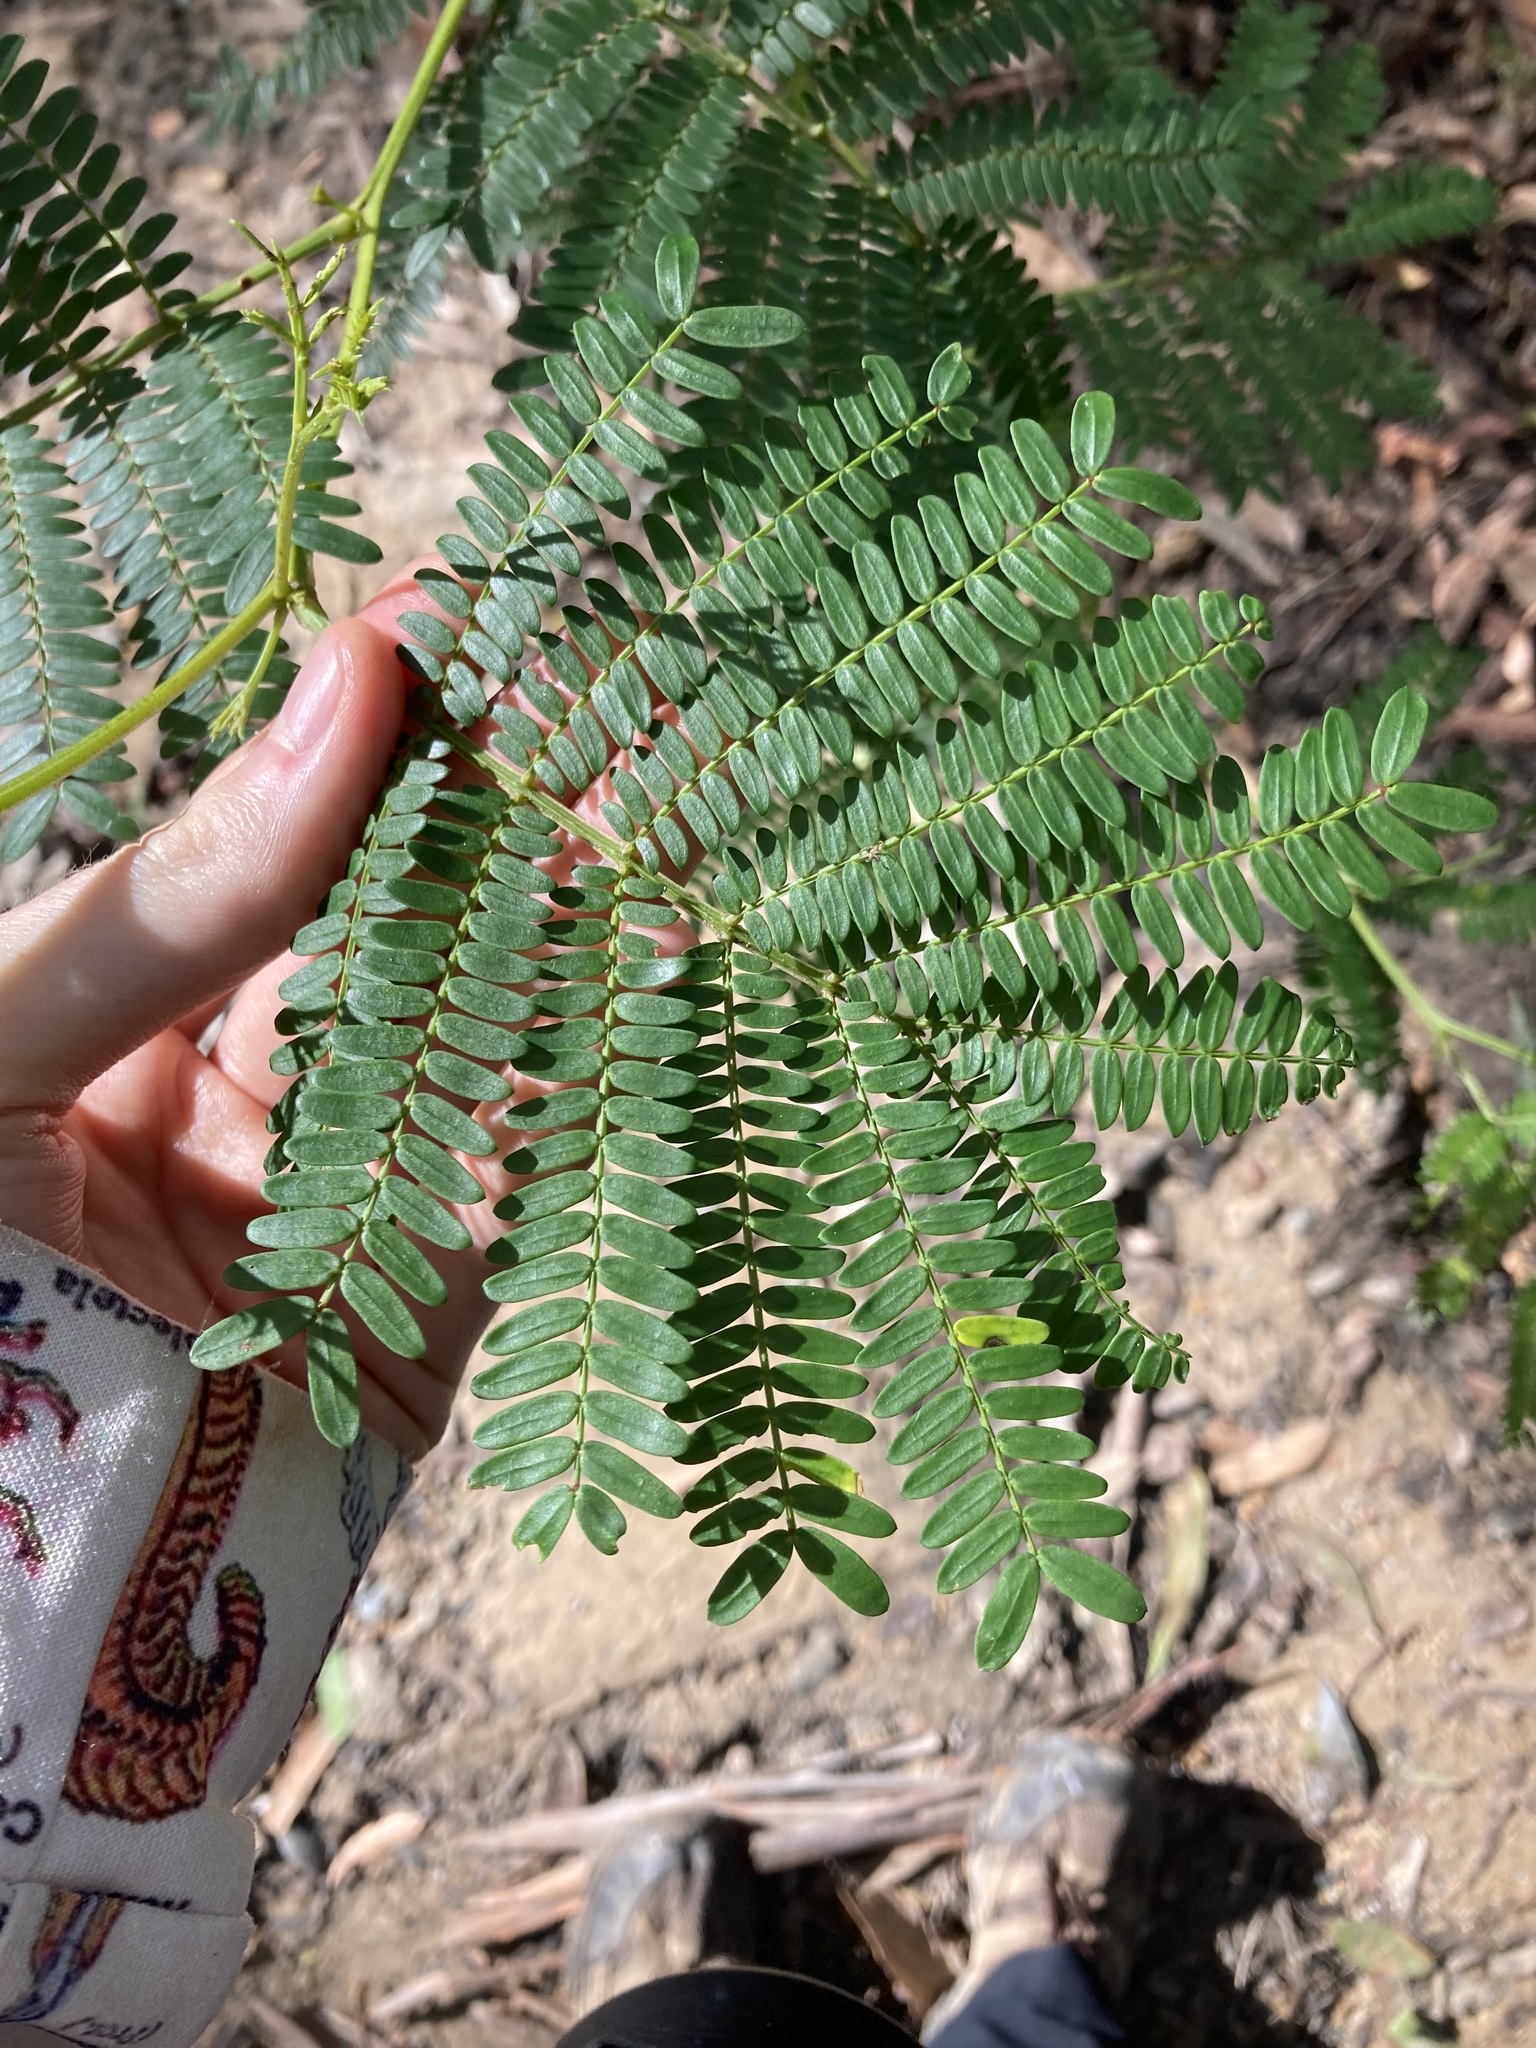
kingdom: Plantae
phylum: Tracheophyta
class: Magnoliopsida
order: Fabales
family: Fabaceae
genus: Acacia
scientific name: Acacia terminalis
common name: Cedar wattle
